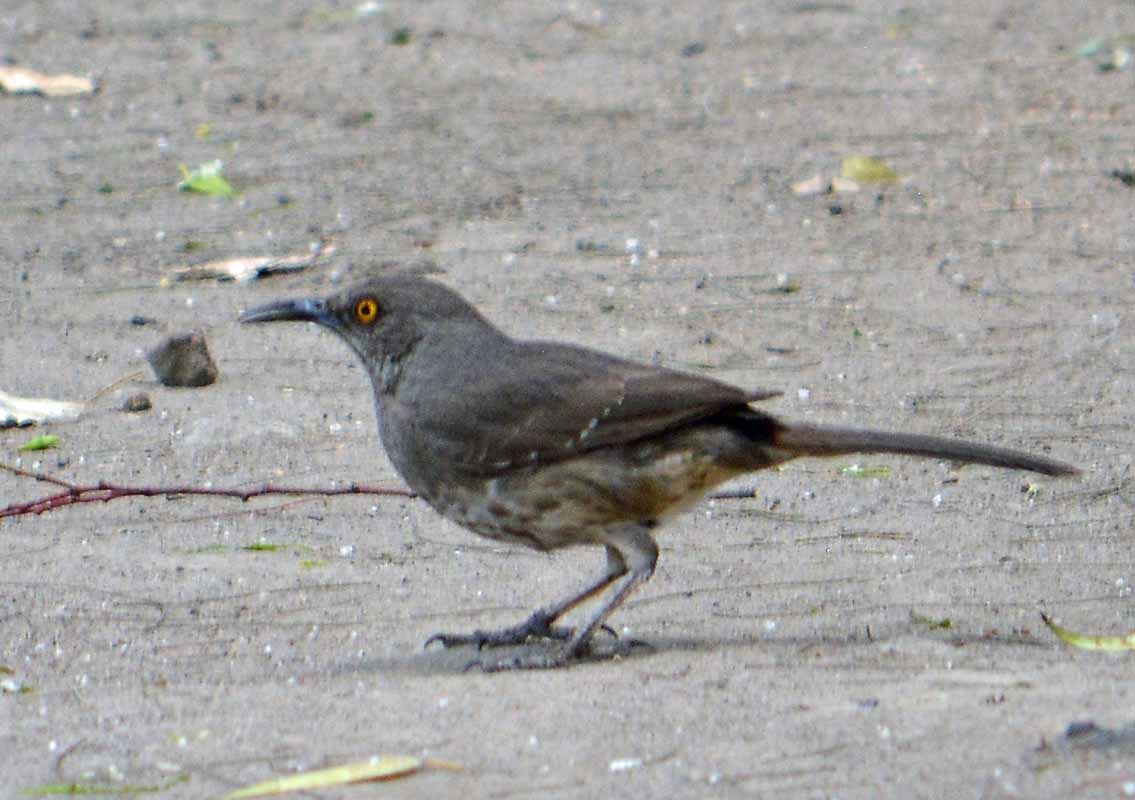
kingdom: Animalia
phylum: Chordata
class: Aves
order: Passeriformes
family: Mimidae
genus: Toxostoma
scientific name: Toxostoma curvirostre
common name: Curve-billed thrasher
